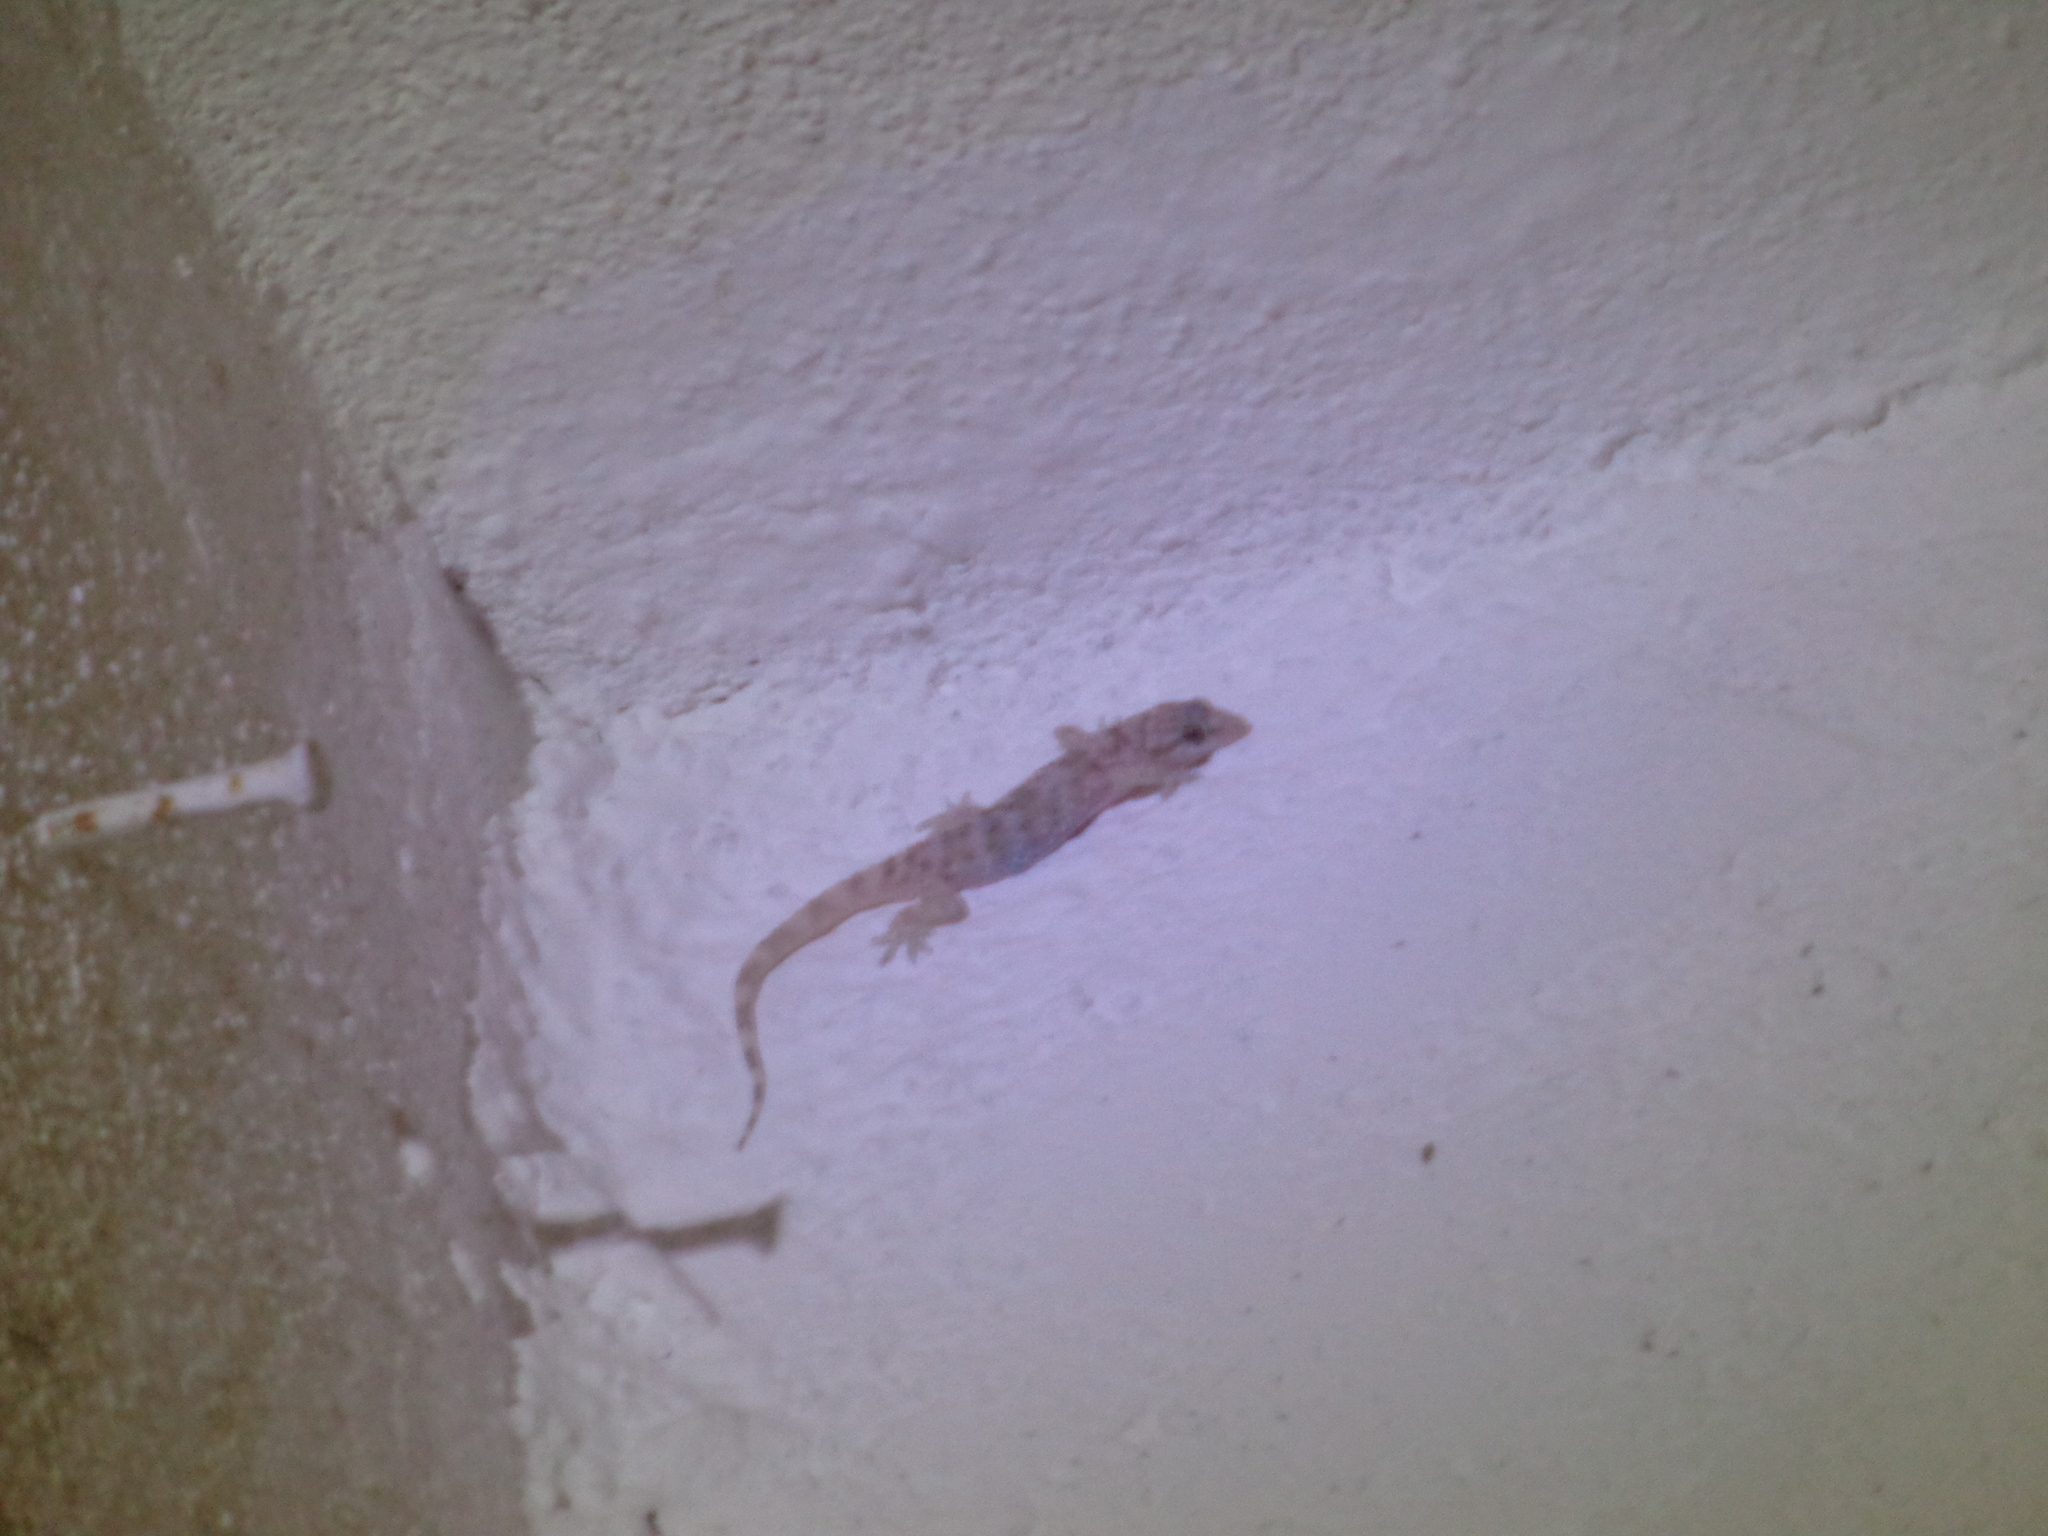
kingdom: Animalia
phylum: Chordata
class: Squamata
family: Gekkonidae
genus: Hemidactylus
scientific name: Hemidactylus turcicus
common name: Turkish gecko
